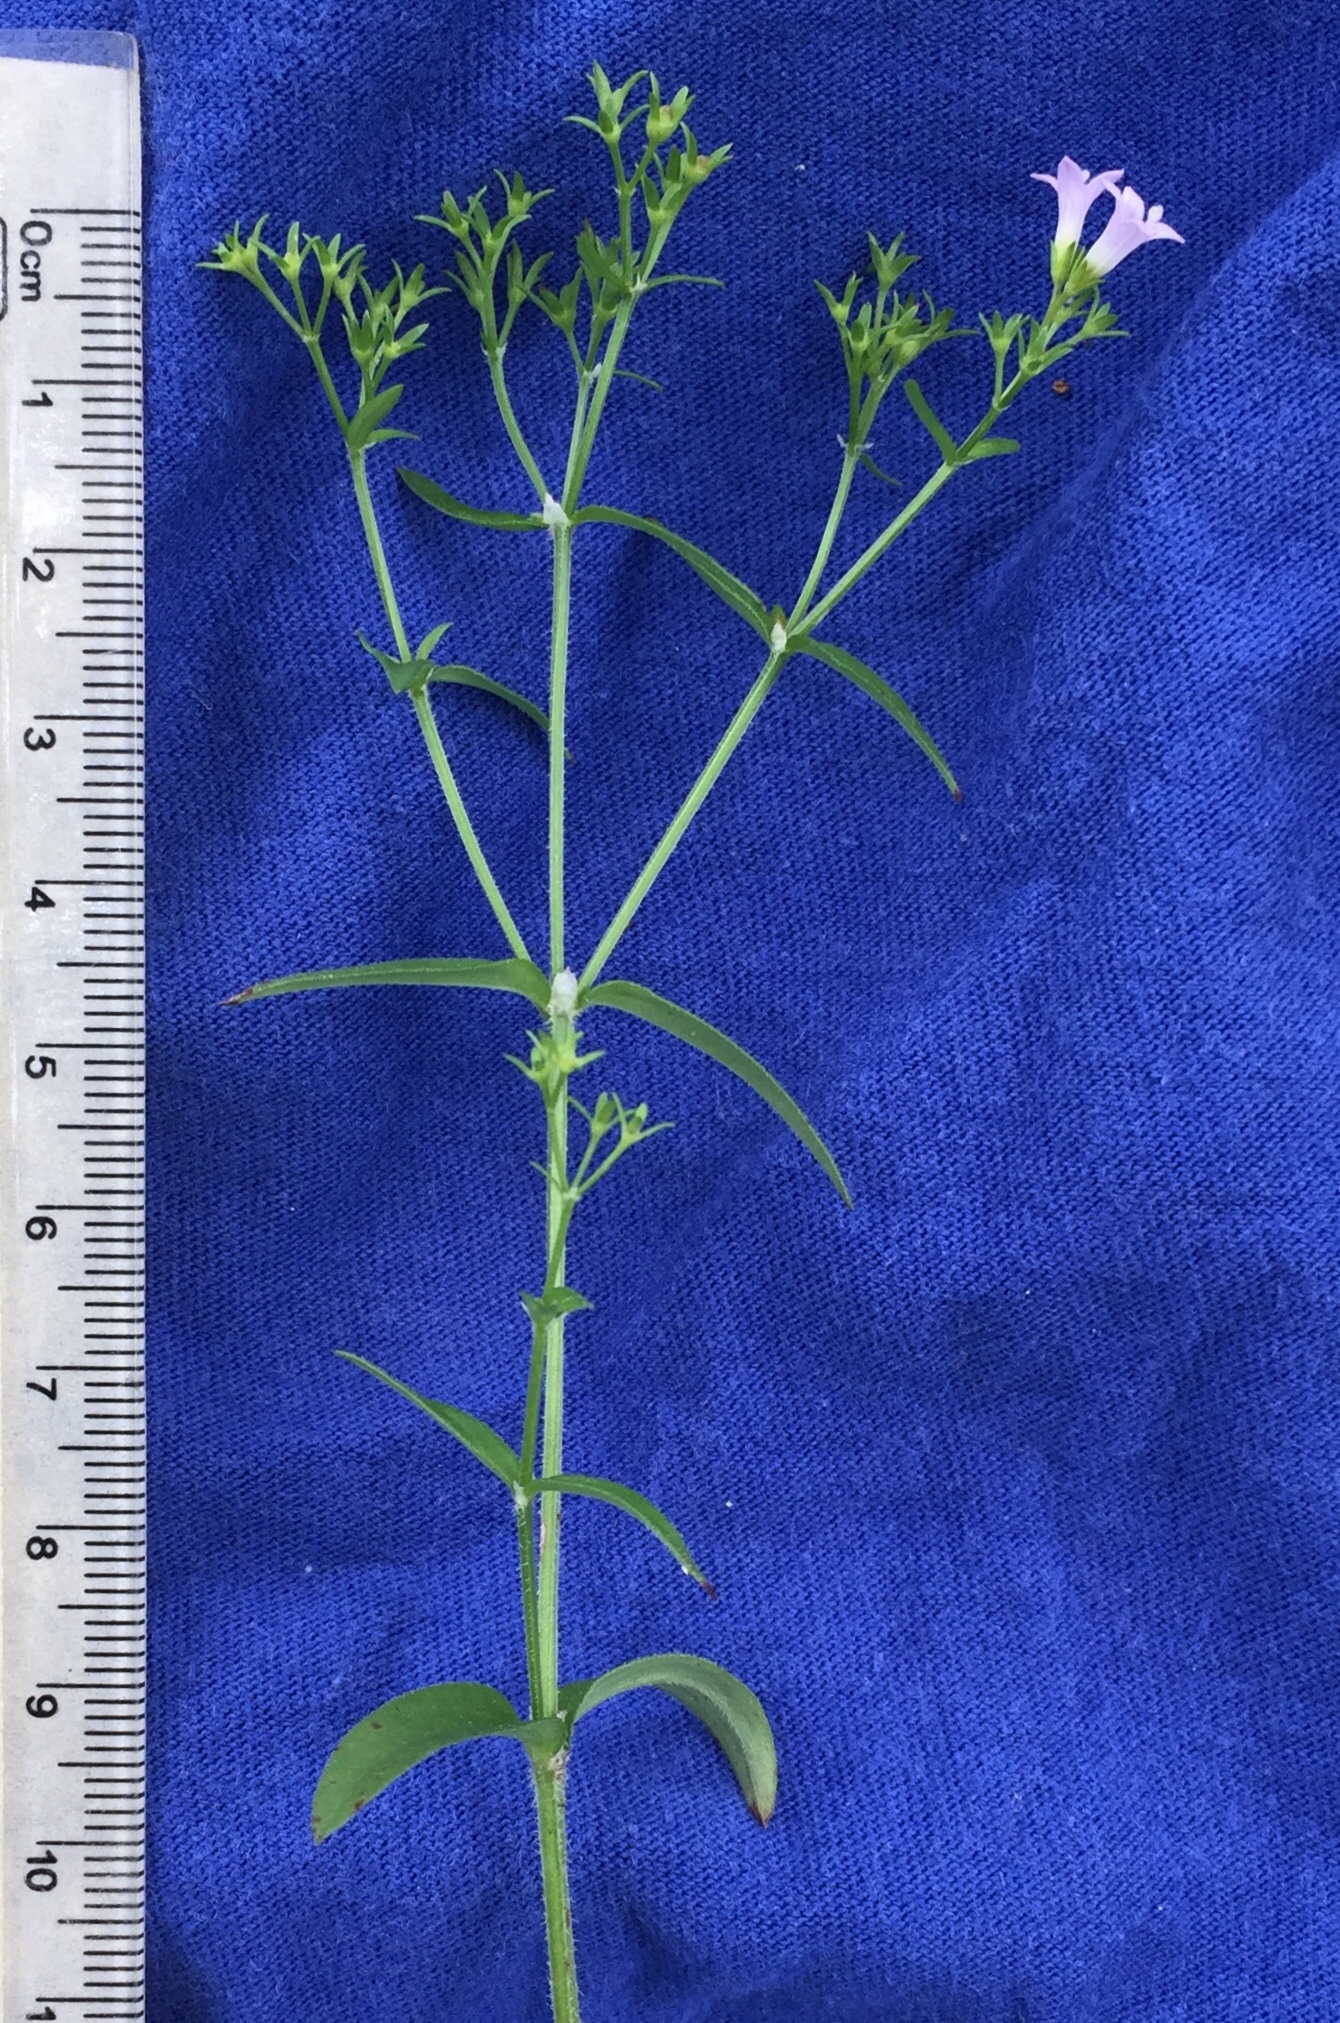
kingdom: Plantae
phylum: Tracheophyta
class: Magnoliopsida
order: Gentianales
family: Rubiaceae
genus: Houstonia
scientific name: Houstonia purpurea
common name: Summer bluet
